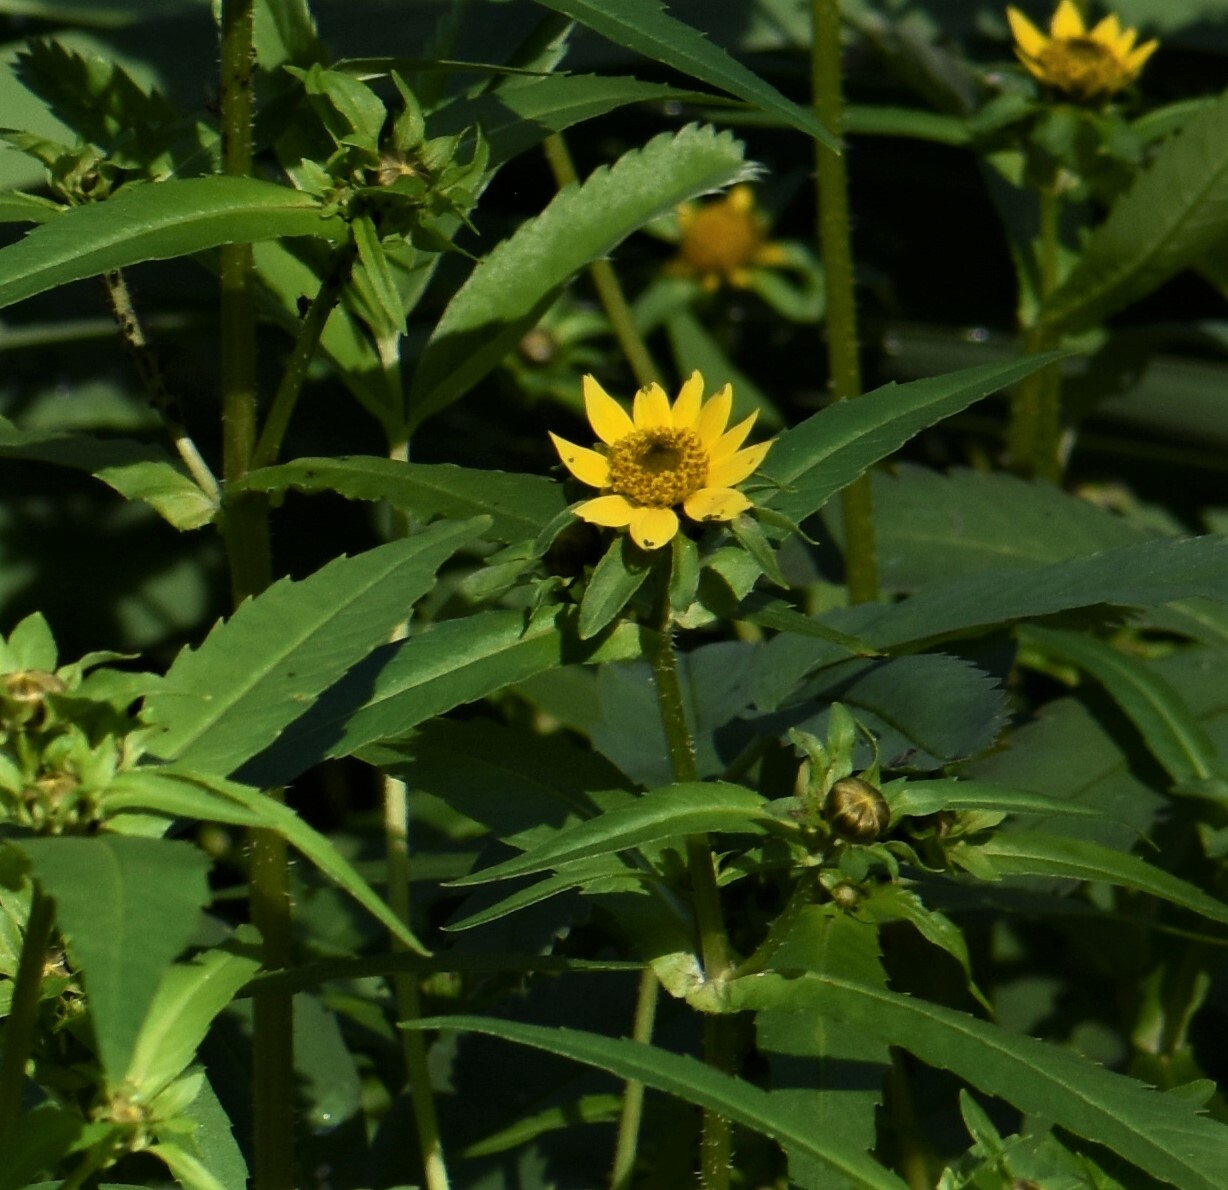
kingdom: Plantae
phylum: Tracheophyta
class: Magnoliopsida
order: Asterales
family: Asteraceae
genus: Bidens
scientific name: Bidens cernua
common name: Nodding bur-marigold
